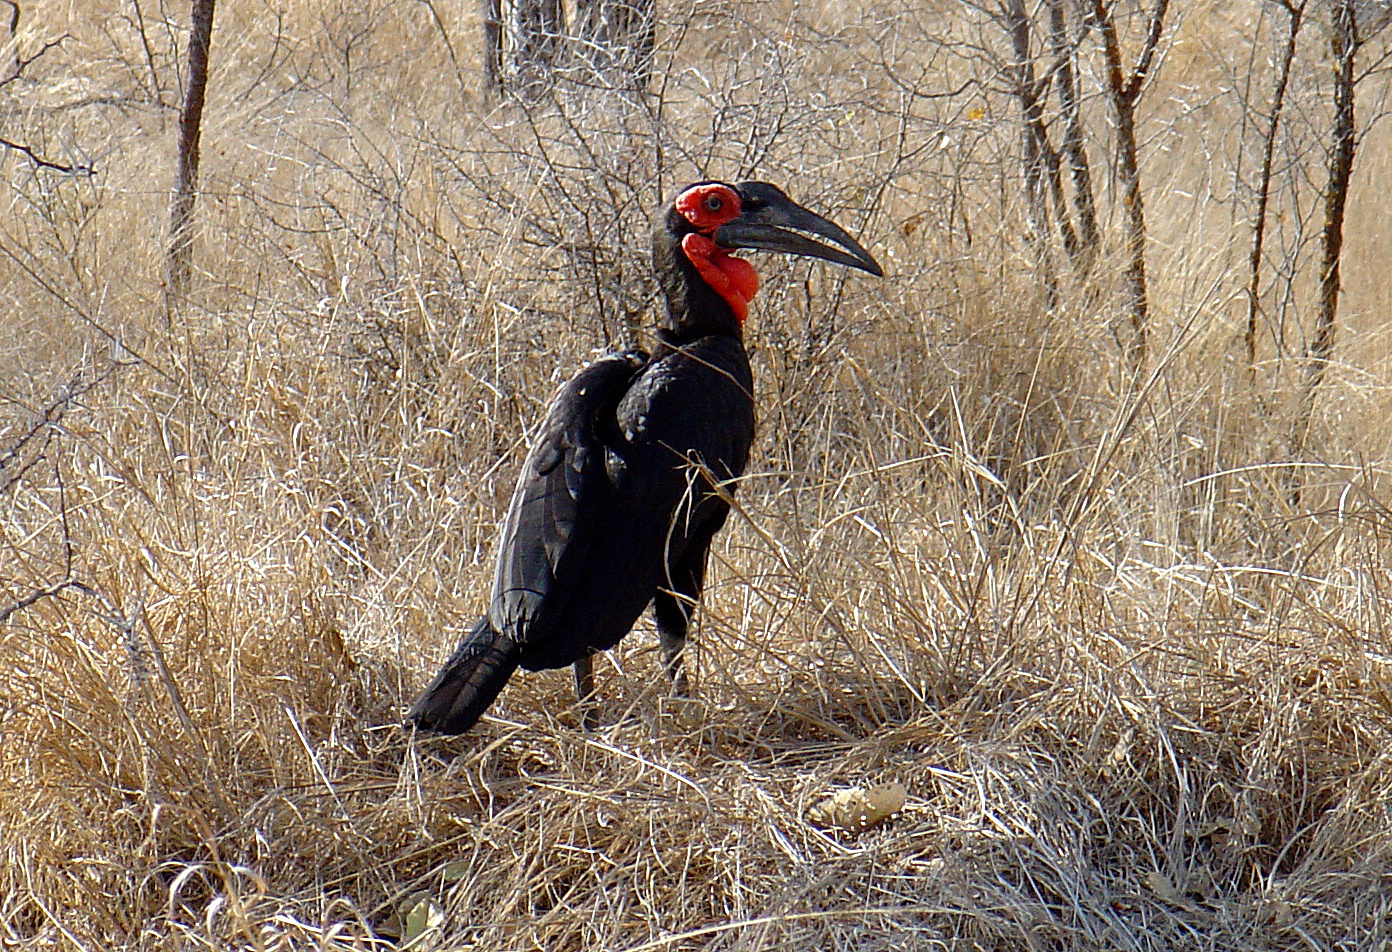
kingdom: Animalia
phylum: Chordata
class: Aves
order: Bucerotiformes
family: Bucorvidae
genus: Bucorvus
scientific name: Bucorvus leadbeateri
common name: Southern ground-hornbill
